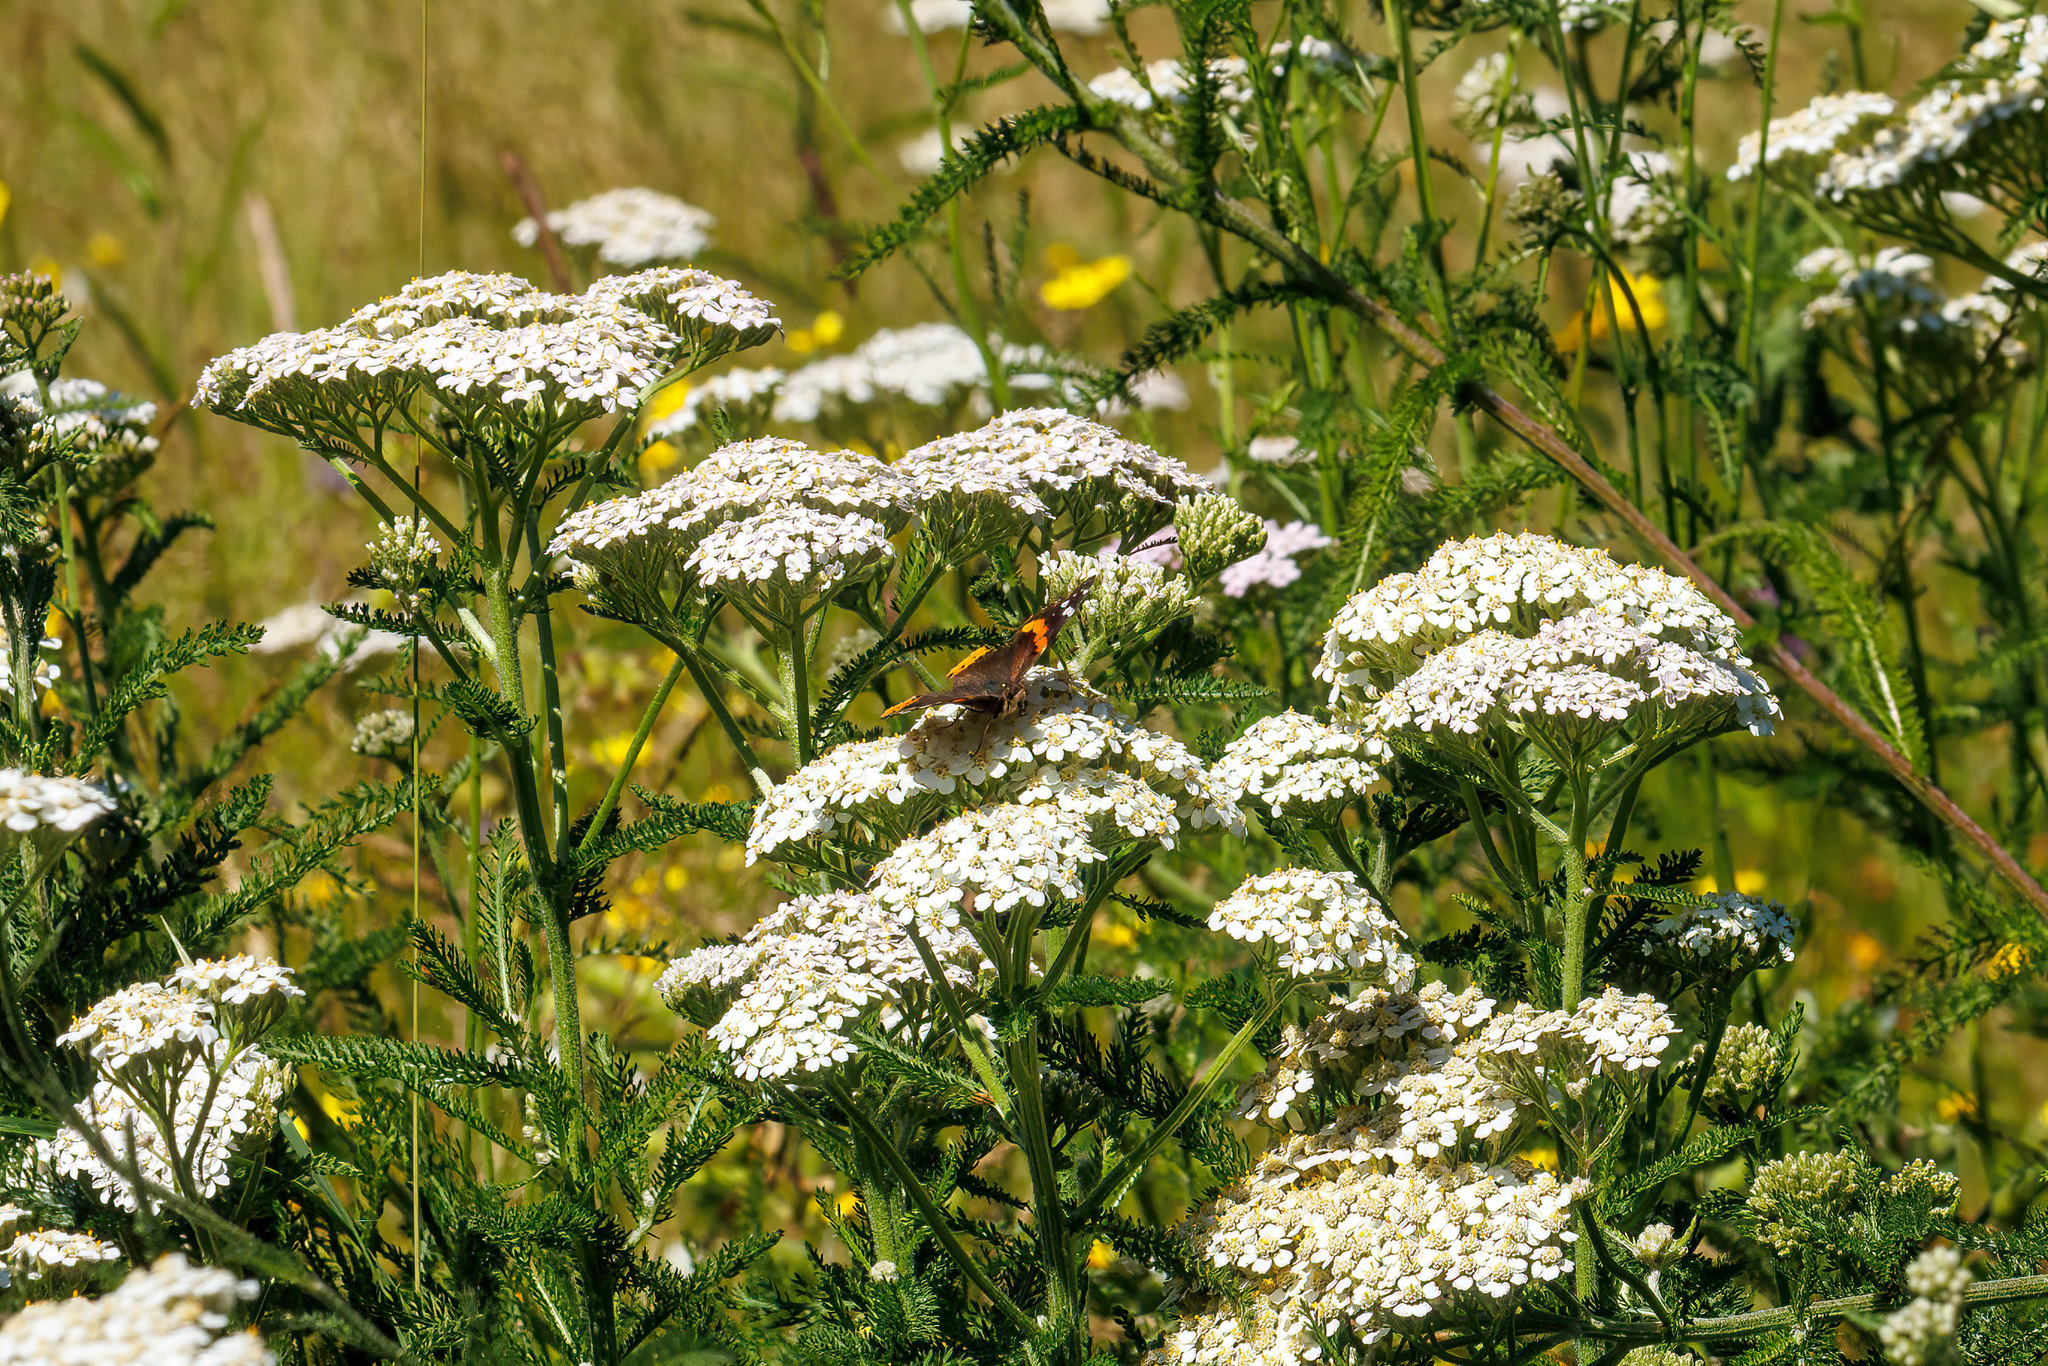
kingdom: Animalia
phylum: Arthropoda
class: Insecta
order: Lepidoptera
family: Nymphalidae
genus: Vanessa
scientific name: Vanessa atalanta
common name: Red admiral
